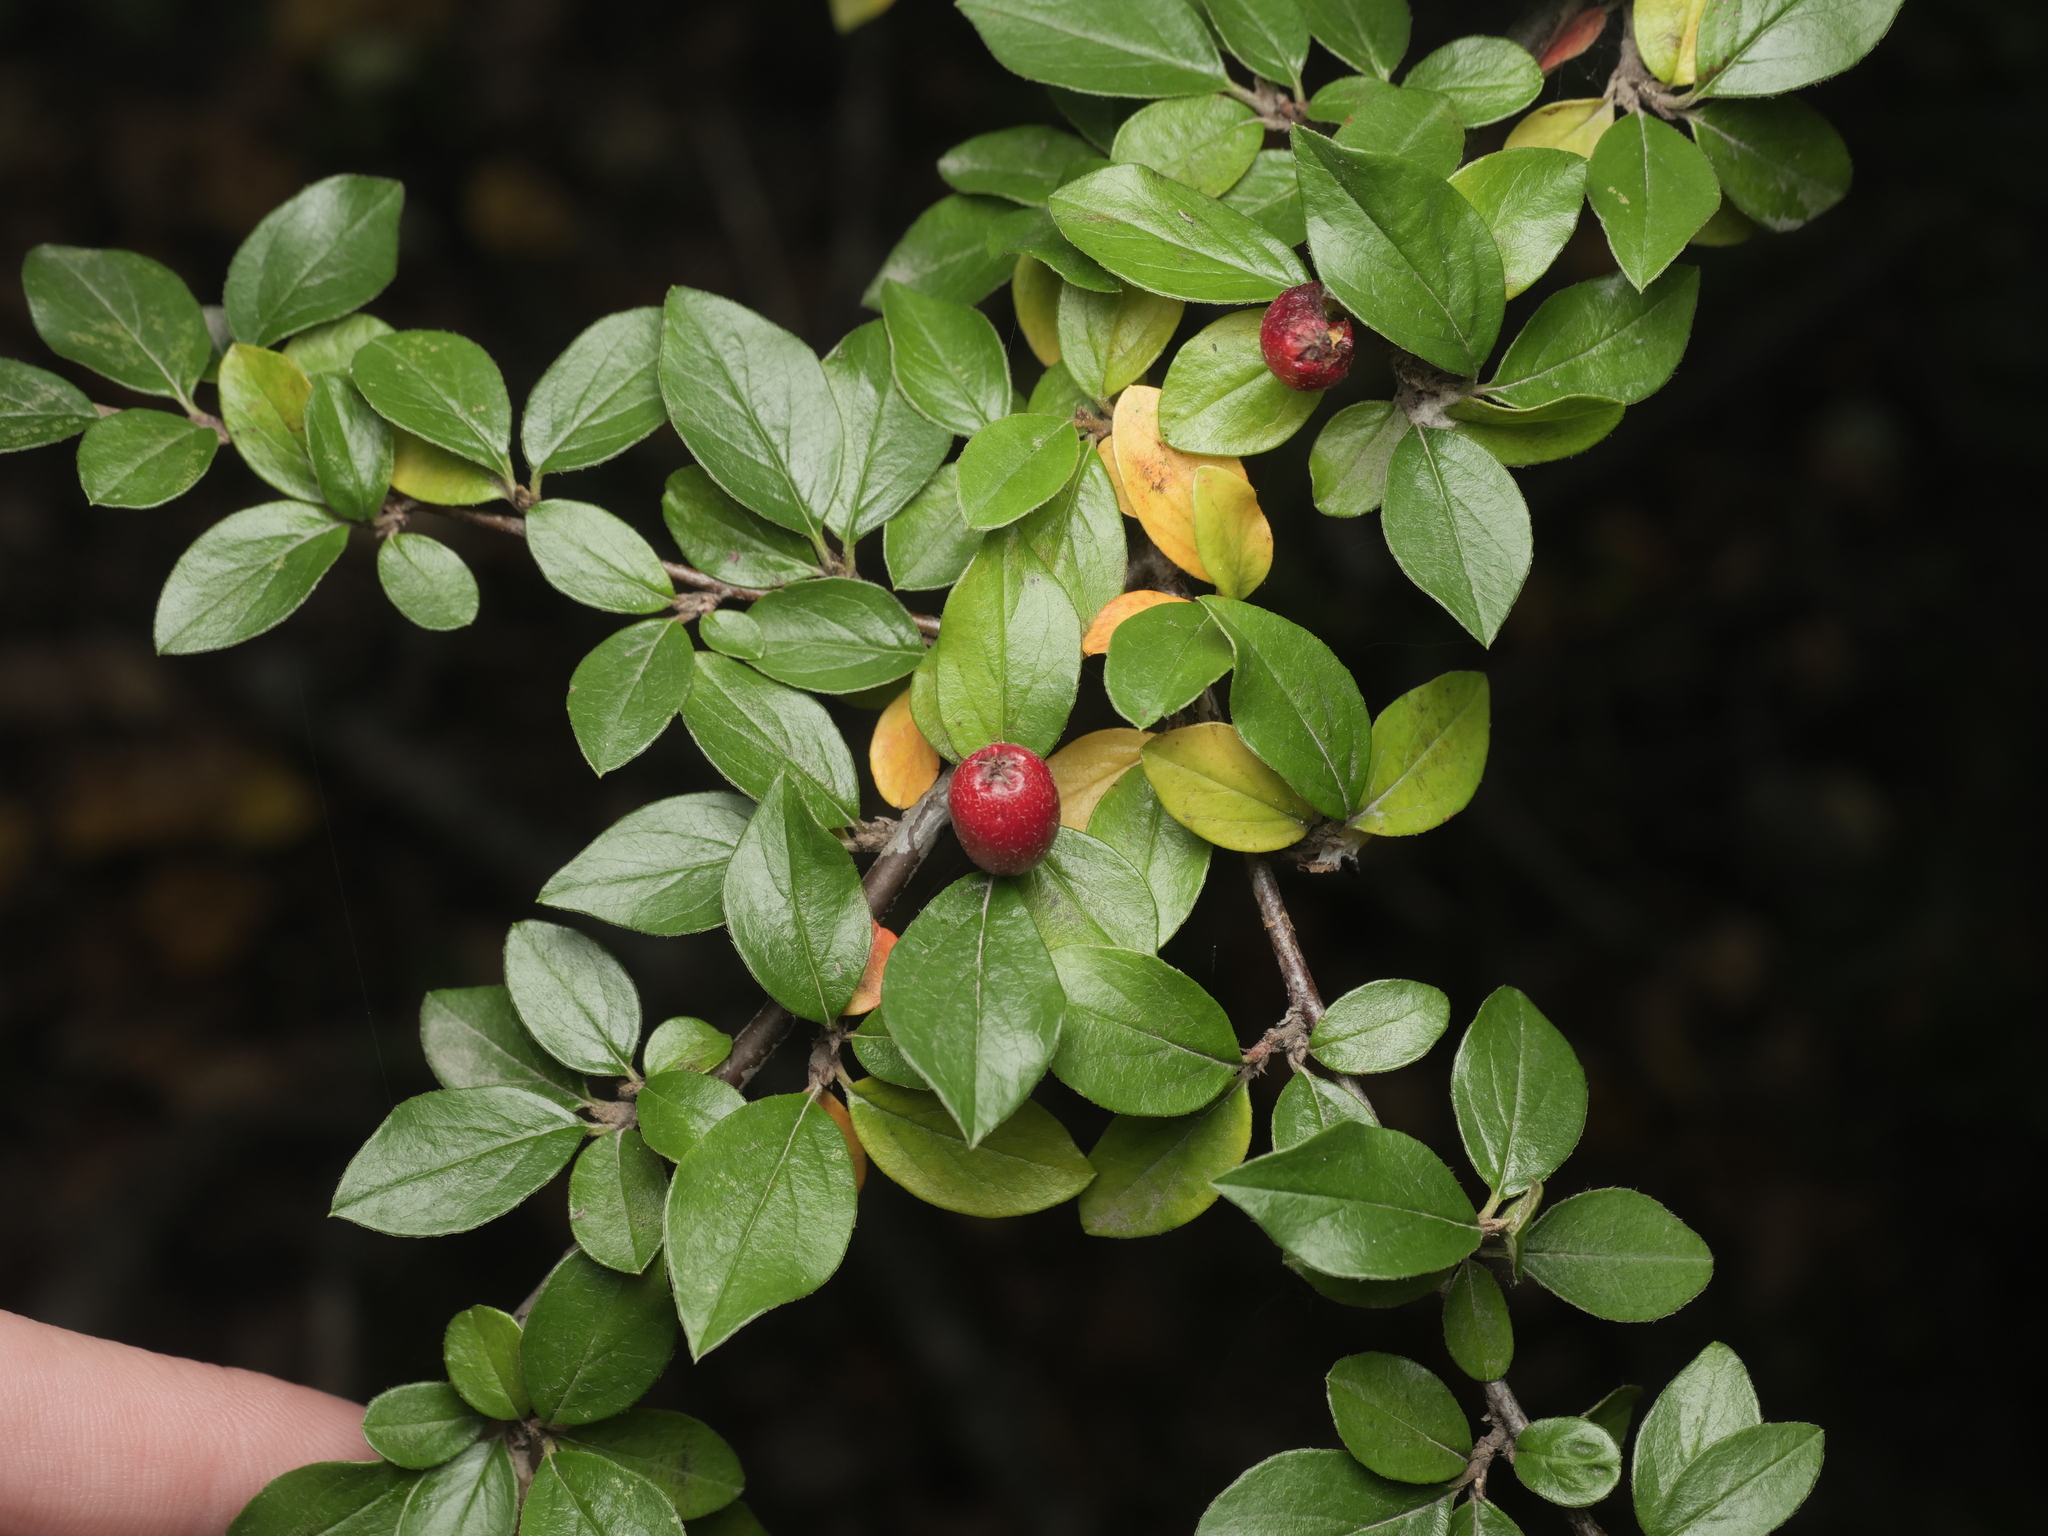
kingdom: Plantae
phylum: Tracheophyta
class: Magnoliopsida
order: Rosales
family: Rosaceae
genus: Cotoneaster
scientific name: Cotoneaster divaricatus
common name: Spreading cotoneaster
